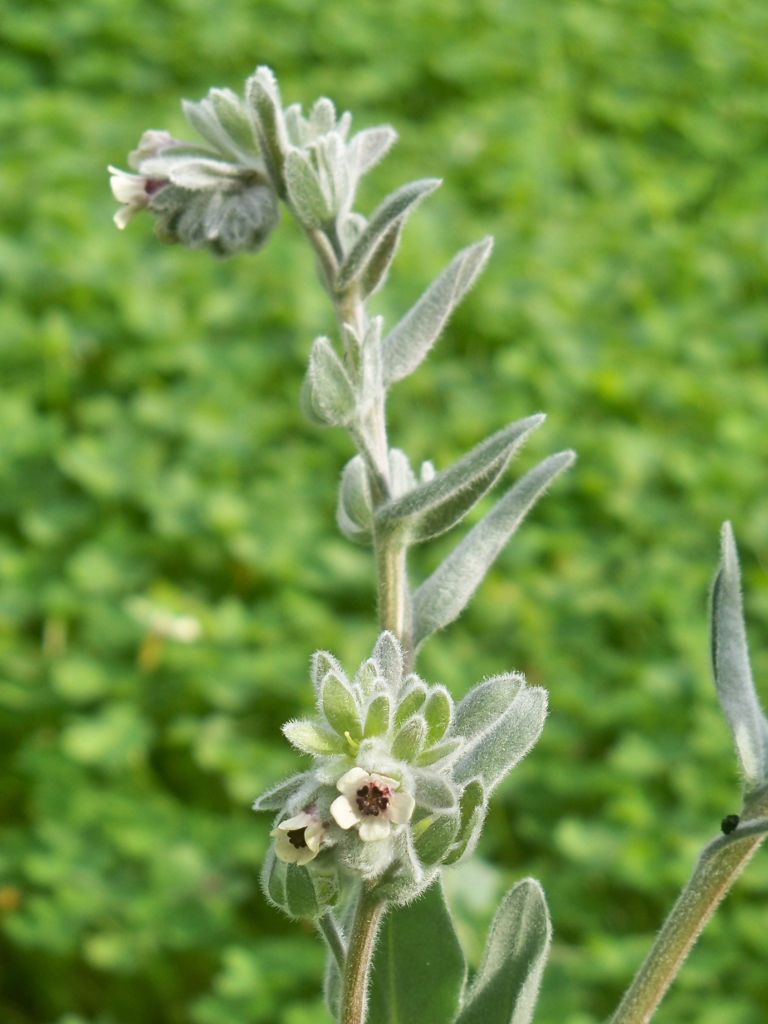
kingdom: Plantae
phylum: Tracheophyta
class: Magnoliopsida
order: Boraginales
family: Boraginaceae
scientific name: Boraginaceae
